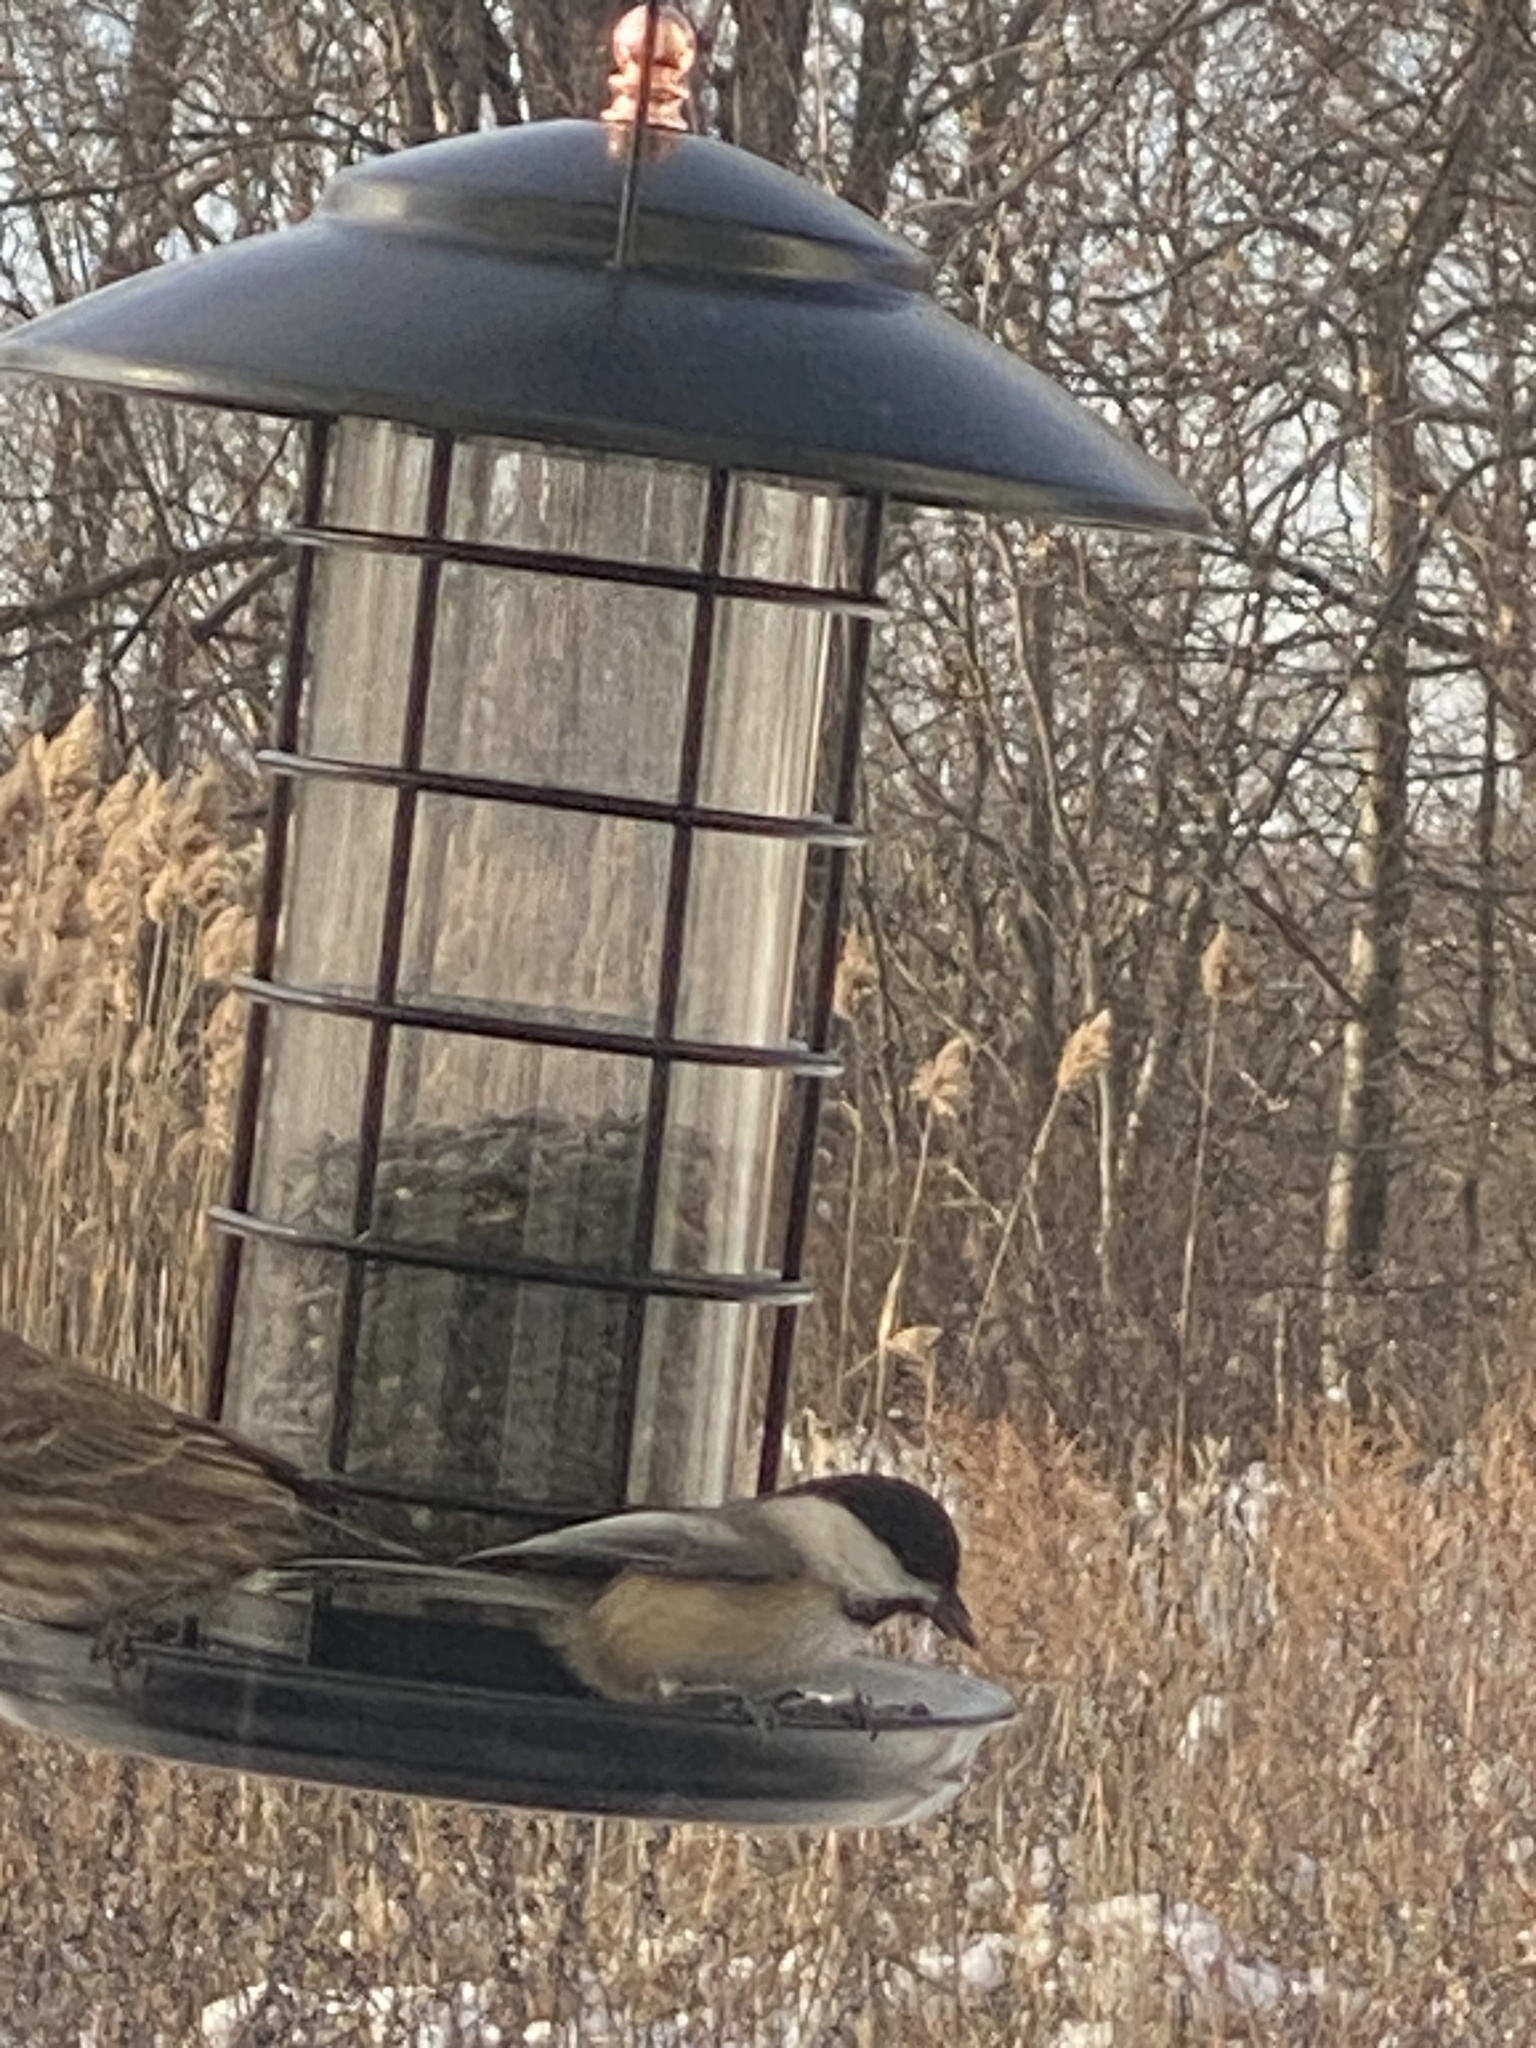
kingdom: Animalia
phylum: Chordata
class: Aves
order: Passeriformes
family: Paridae
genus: Poecile
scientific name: Poecile atricapillus
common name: Black-capped chickadee
